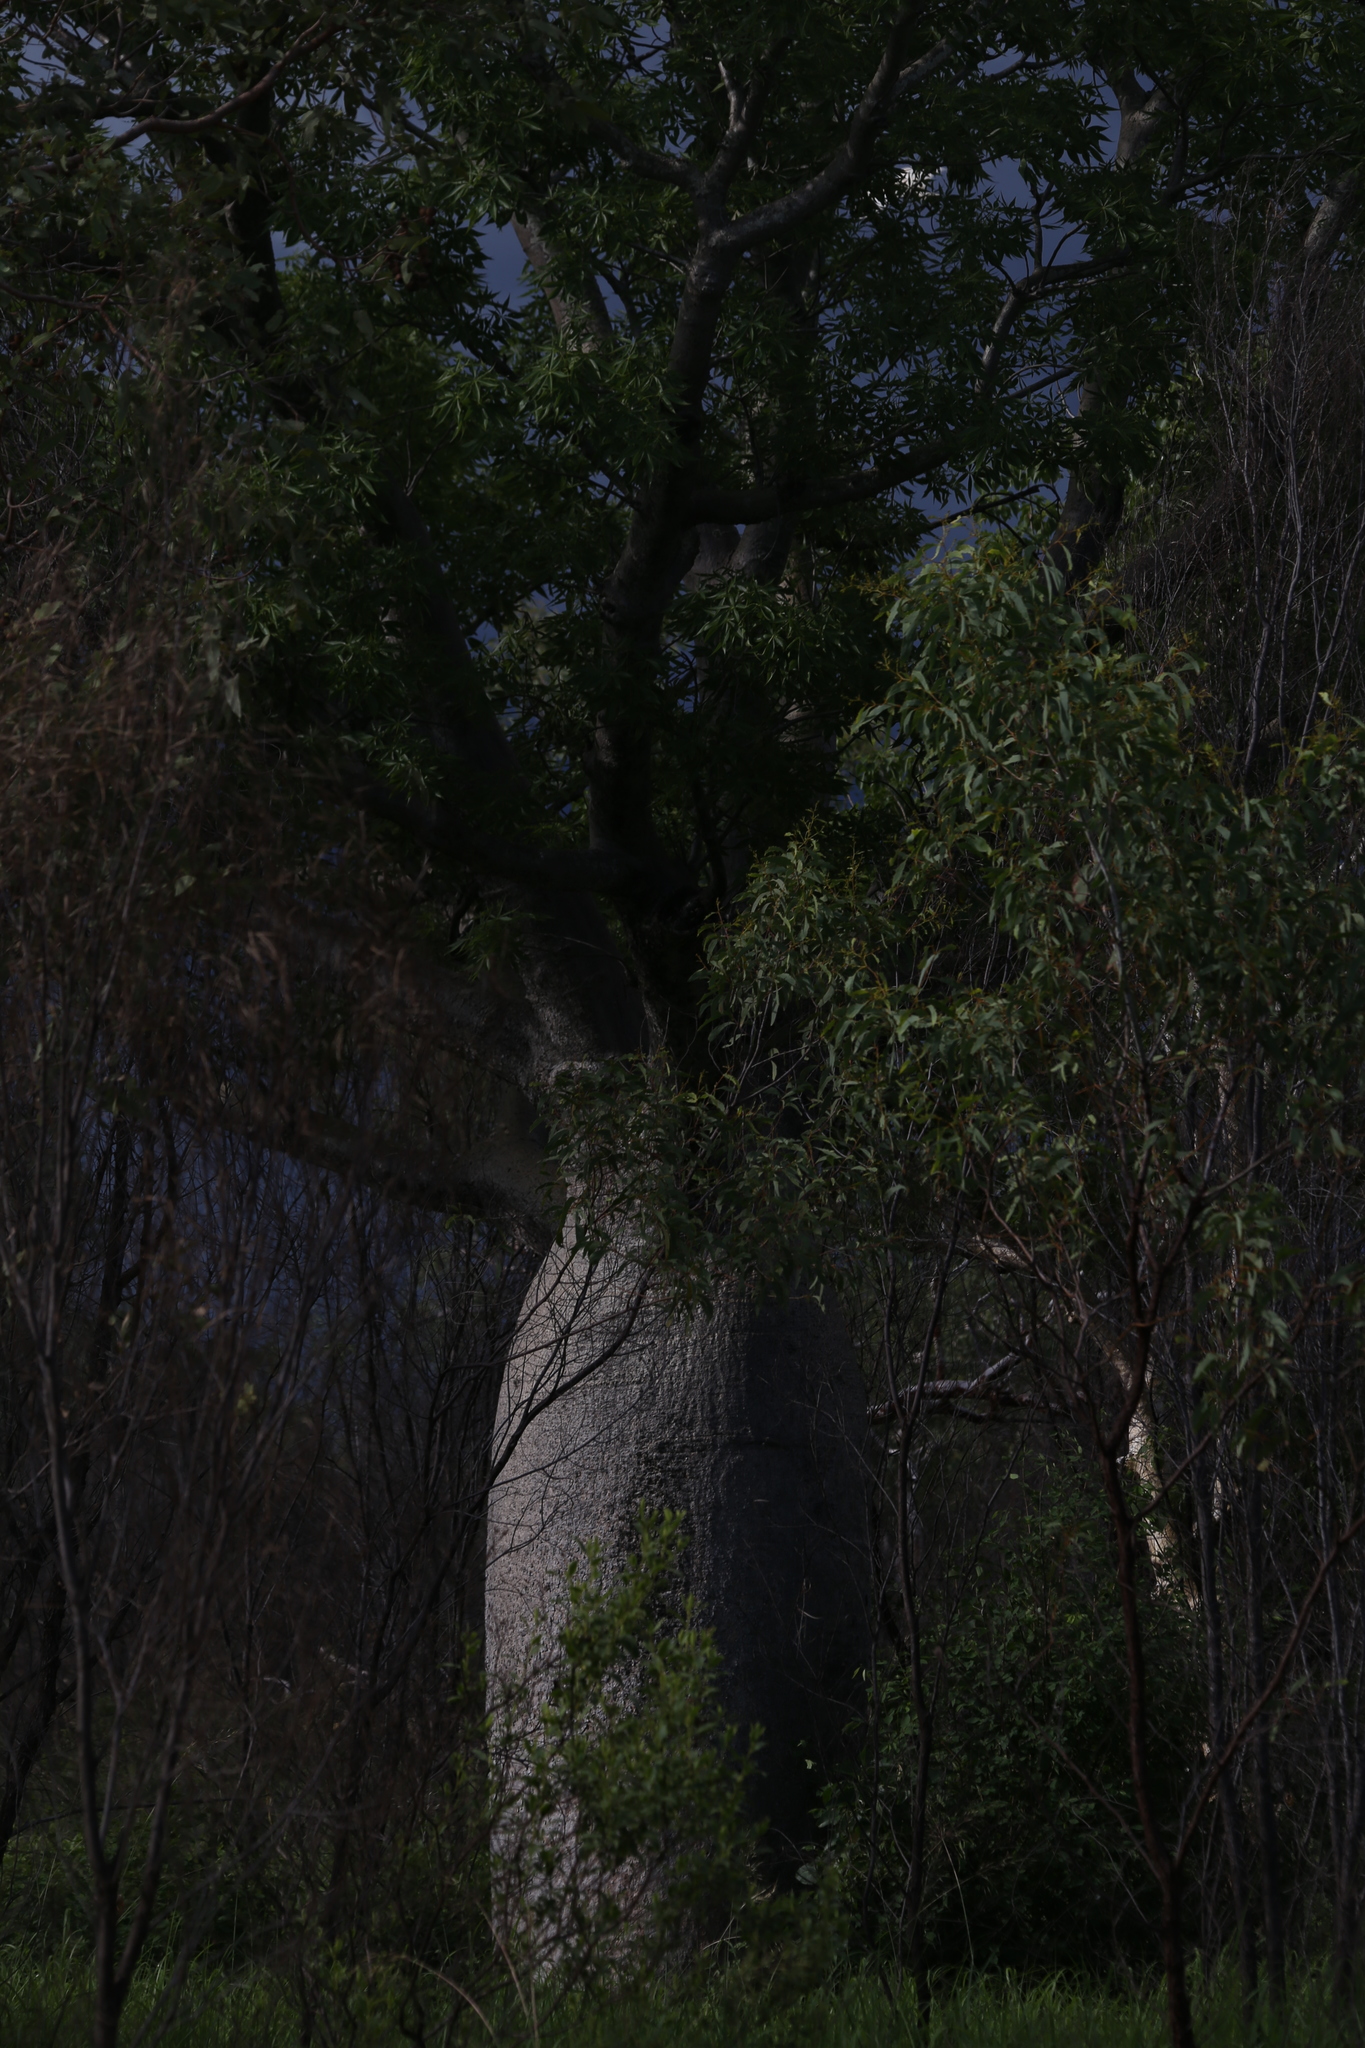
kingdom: Plantae
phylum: Tracheophyta
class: Magnoliopsida
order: Malvales
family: Malvaceae
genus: Adansonia
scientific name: Adansonia gregorii
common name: Australian baobab
